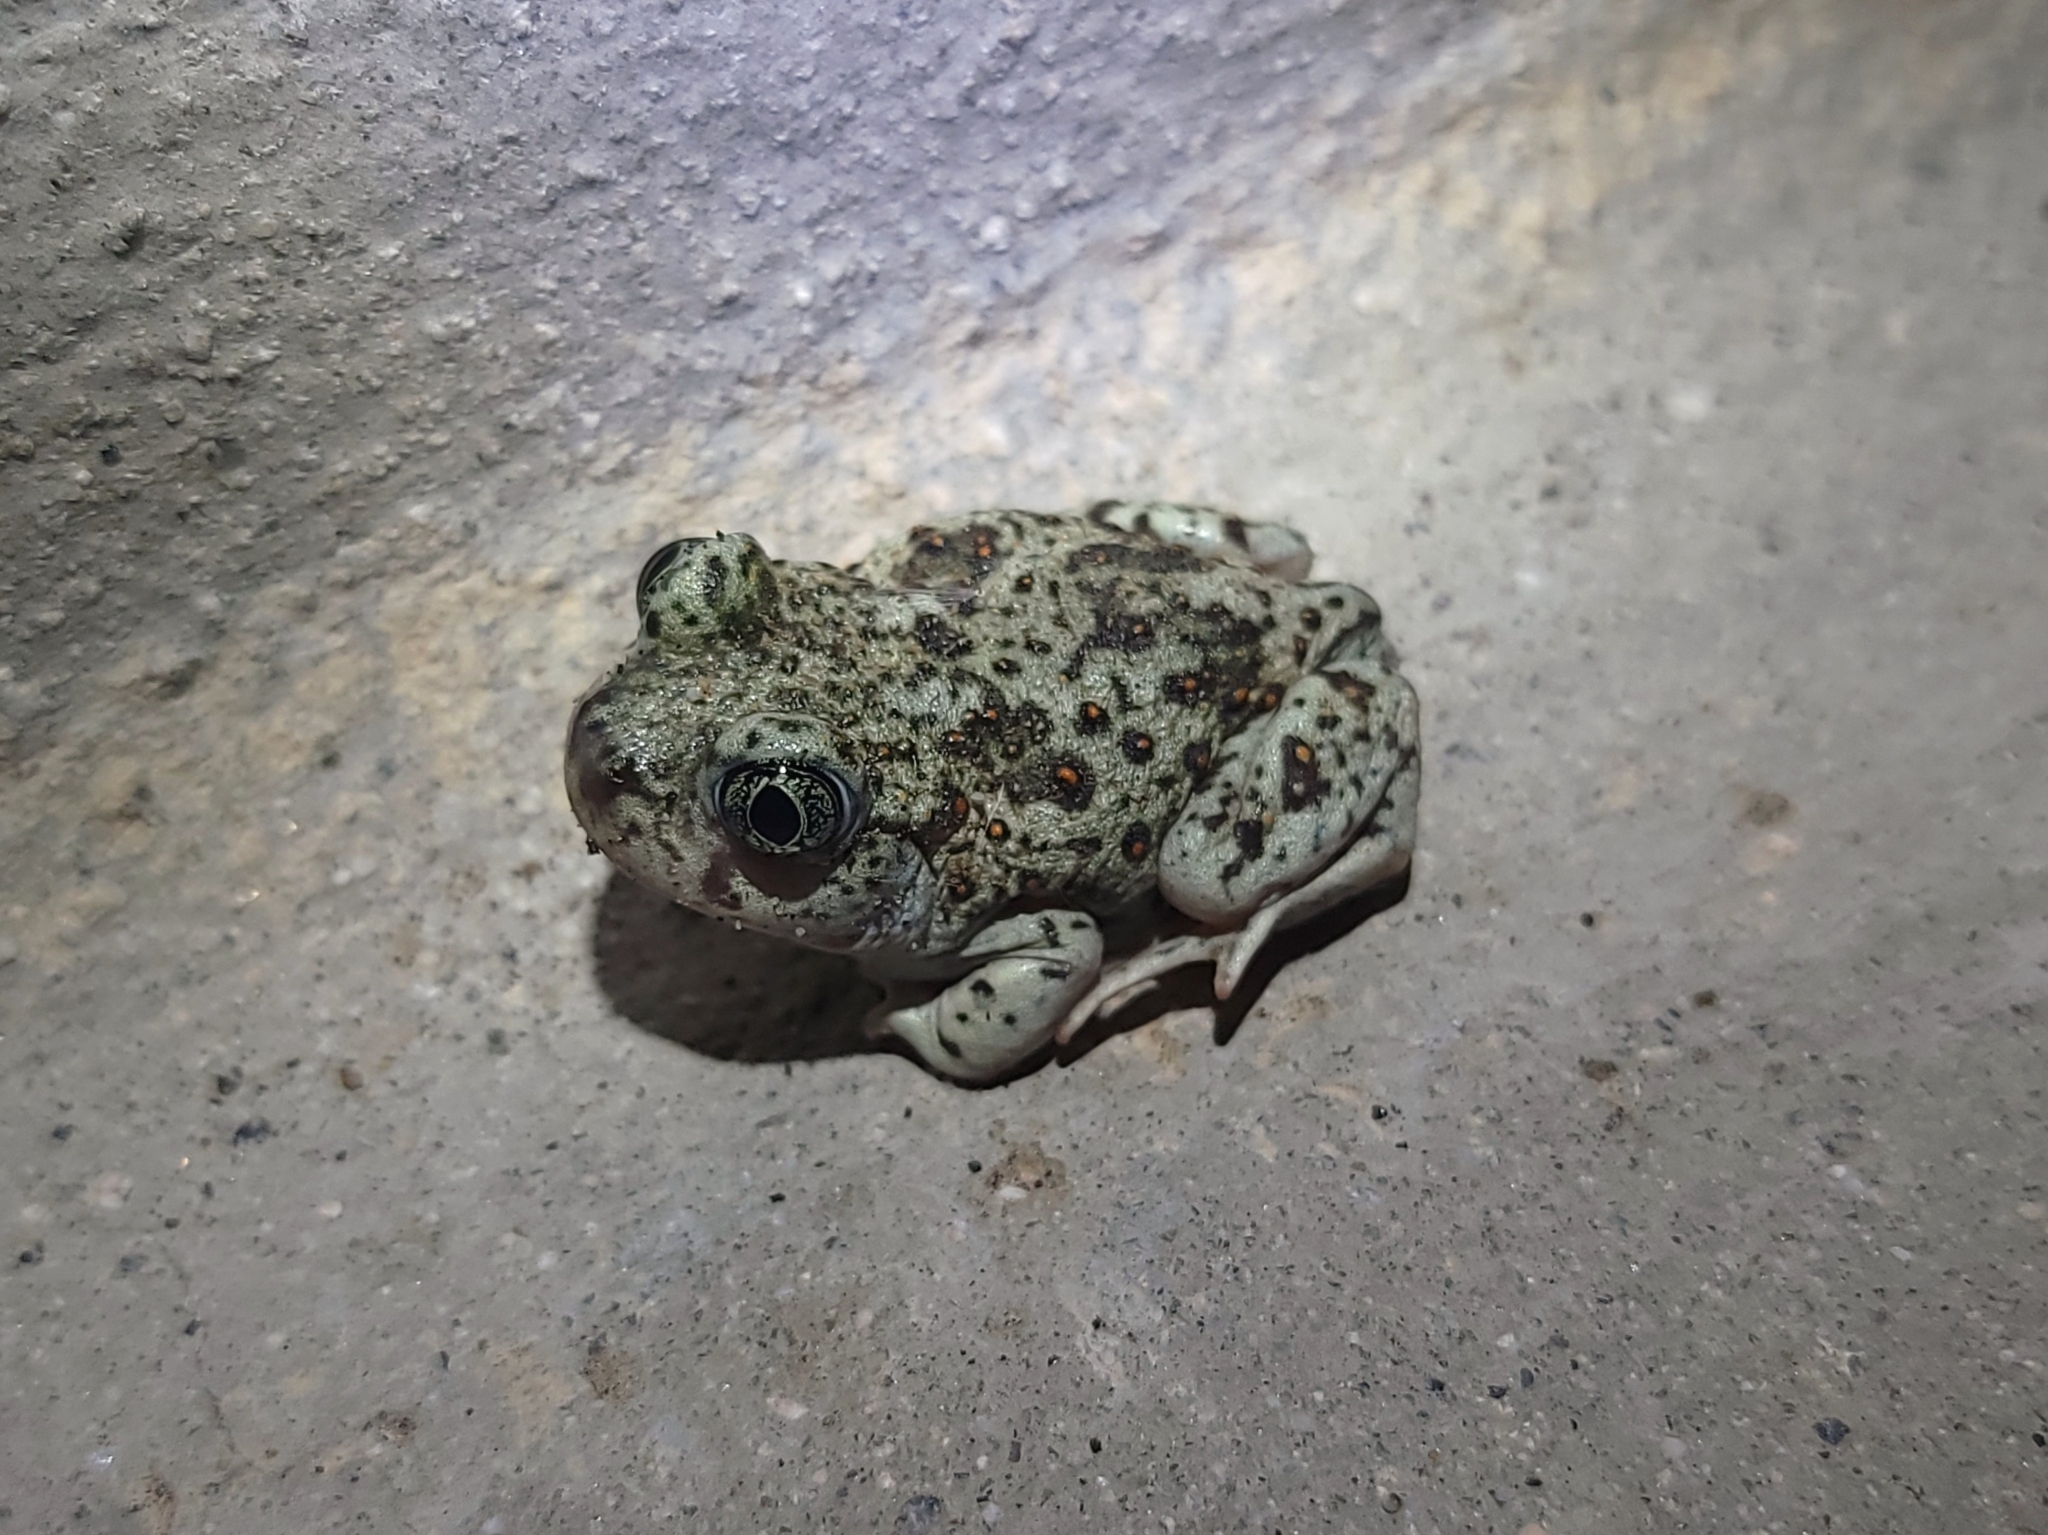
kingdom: Animalia
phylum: Chordata
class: Amphibia
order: Anura
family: Scaphiopodidae
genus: Spea
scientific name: Spea hammondii
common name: Western spadefoot toad
